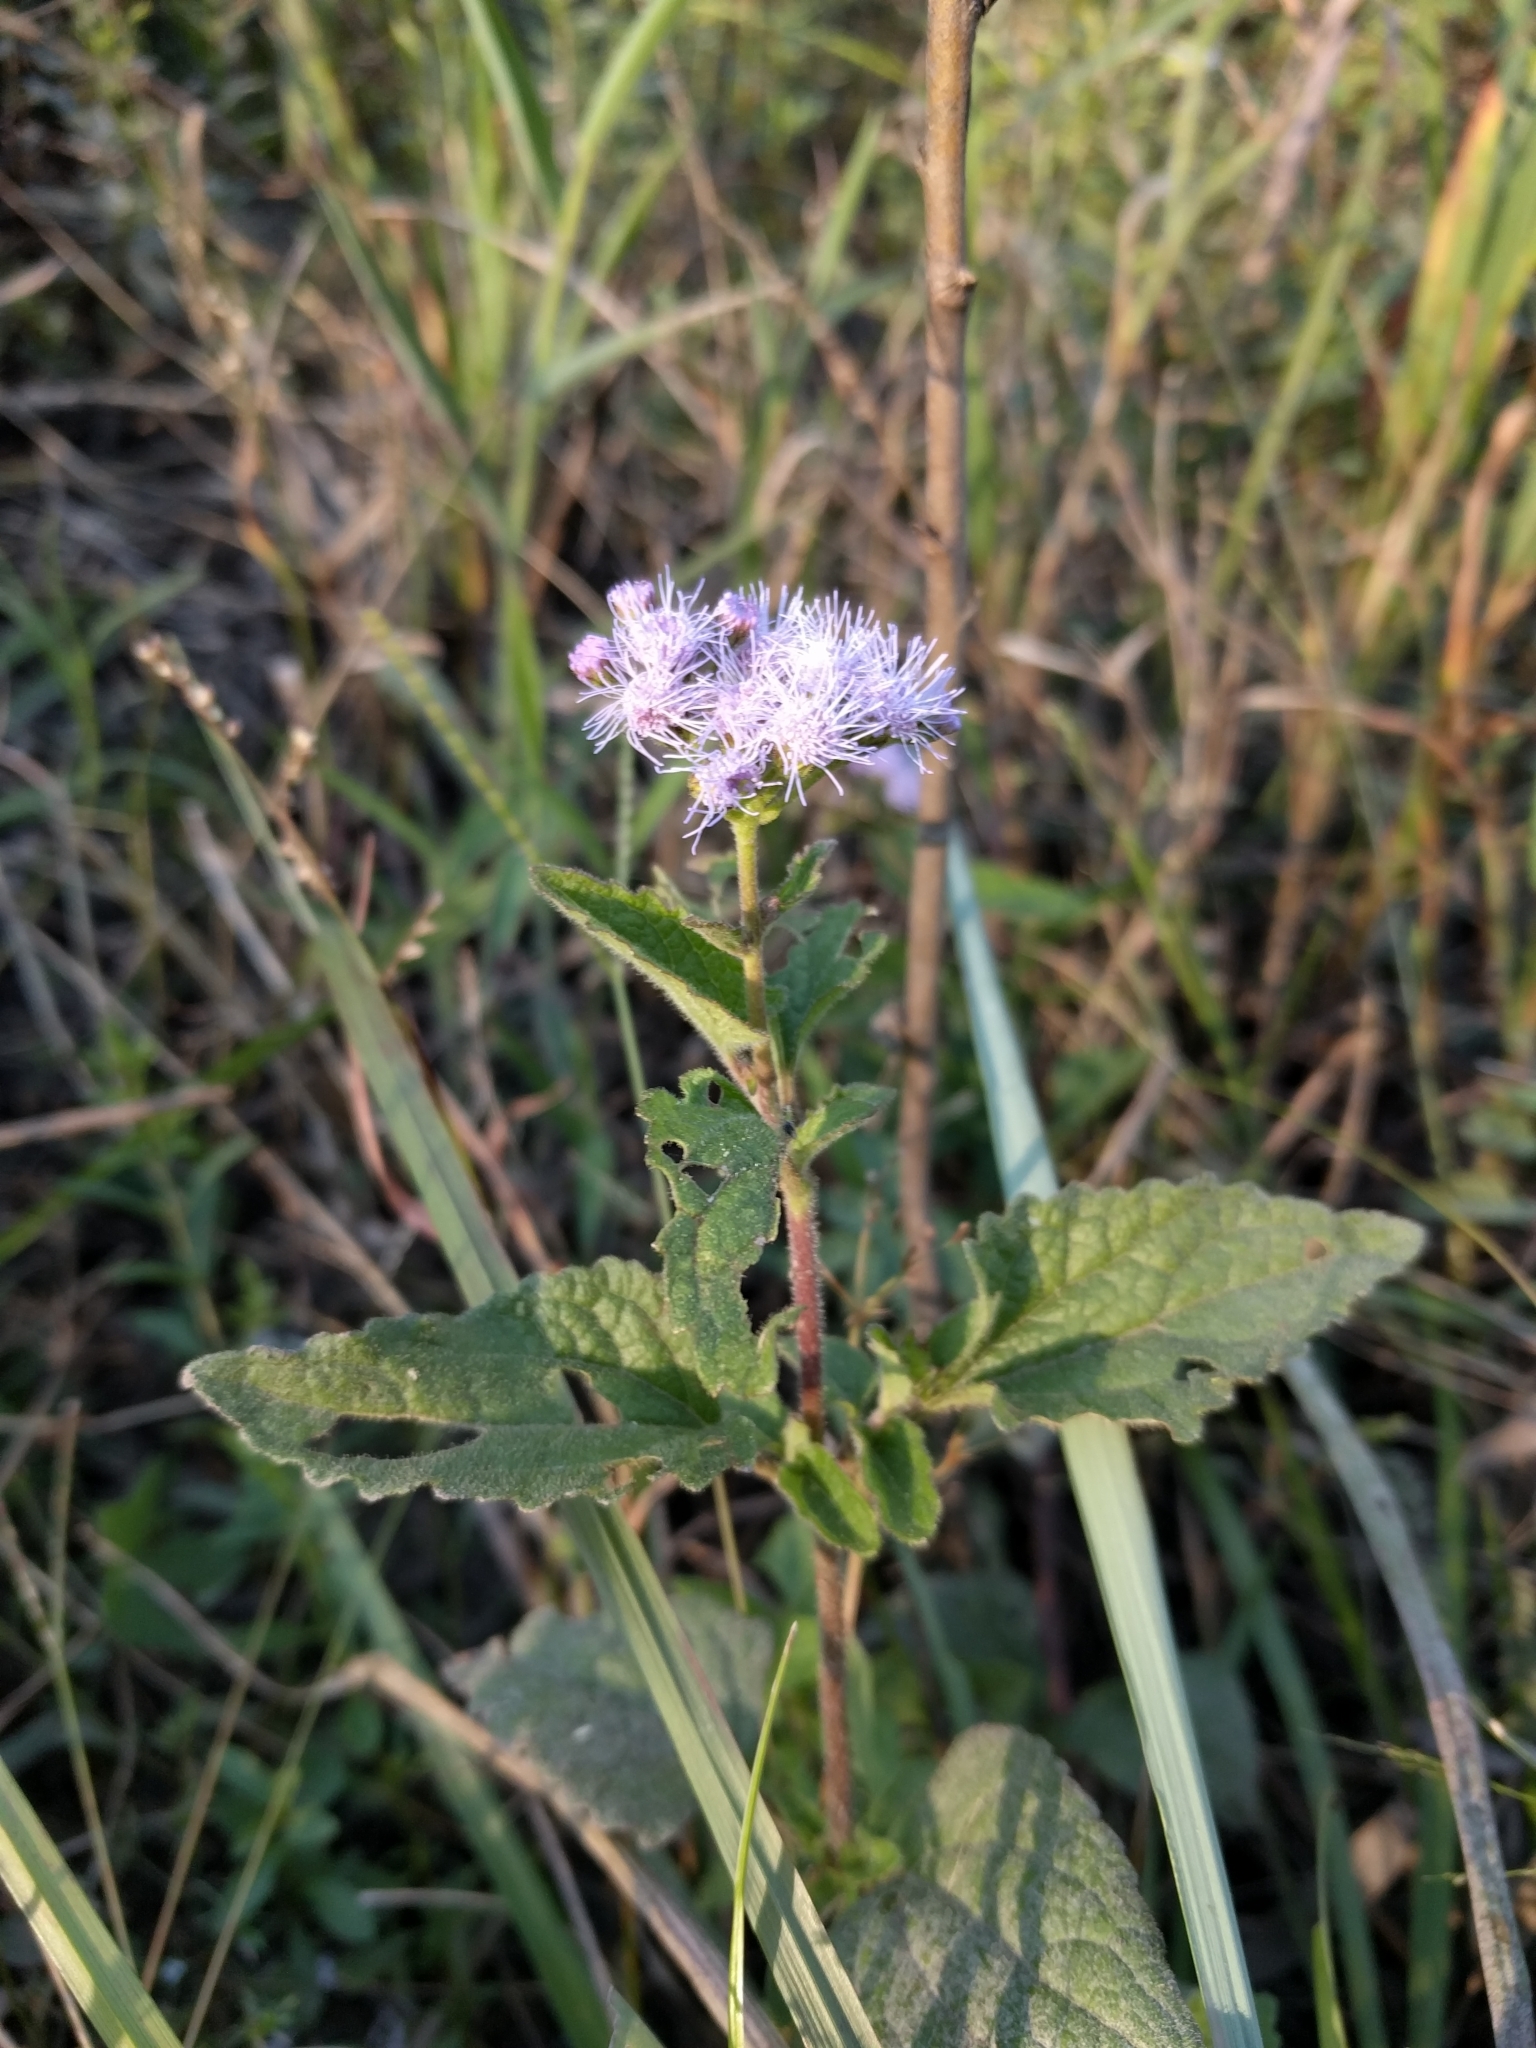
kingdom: Plantae
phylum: Tracheophyta
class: Magnoliopsida
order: Asterales
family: Asteraceae
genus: Conoclinium
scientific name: Conoclinium coelestinum
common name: Blue mistflower
